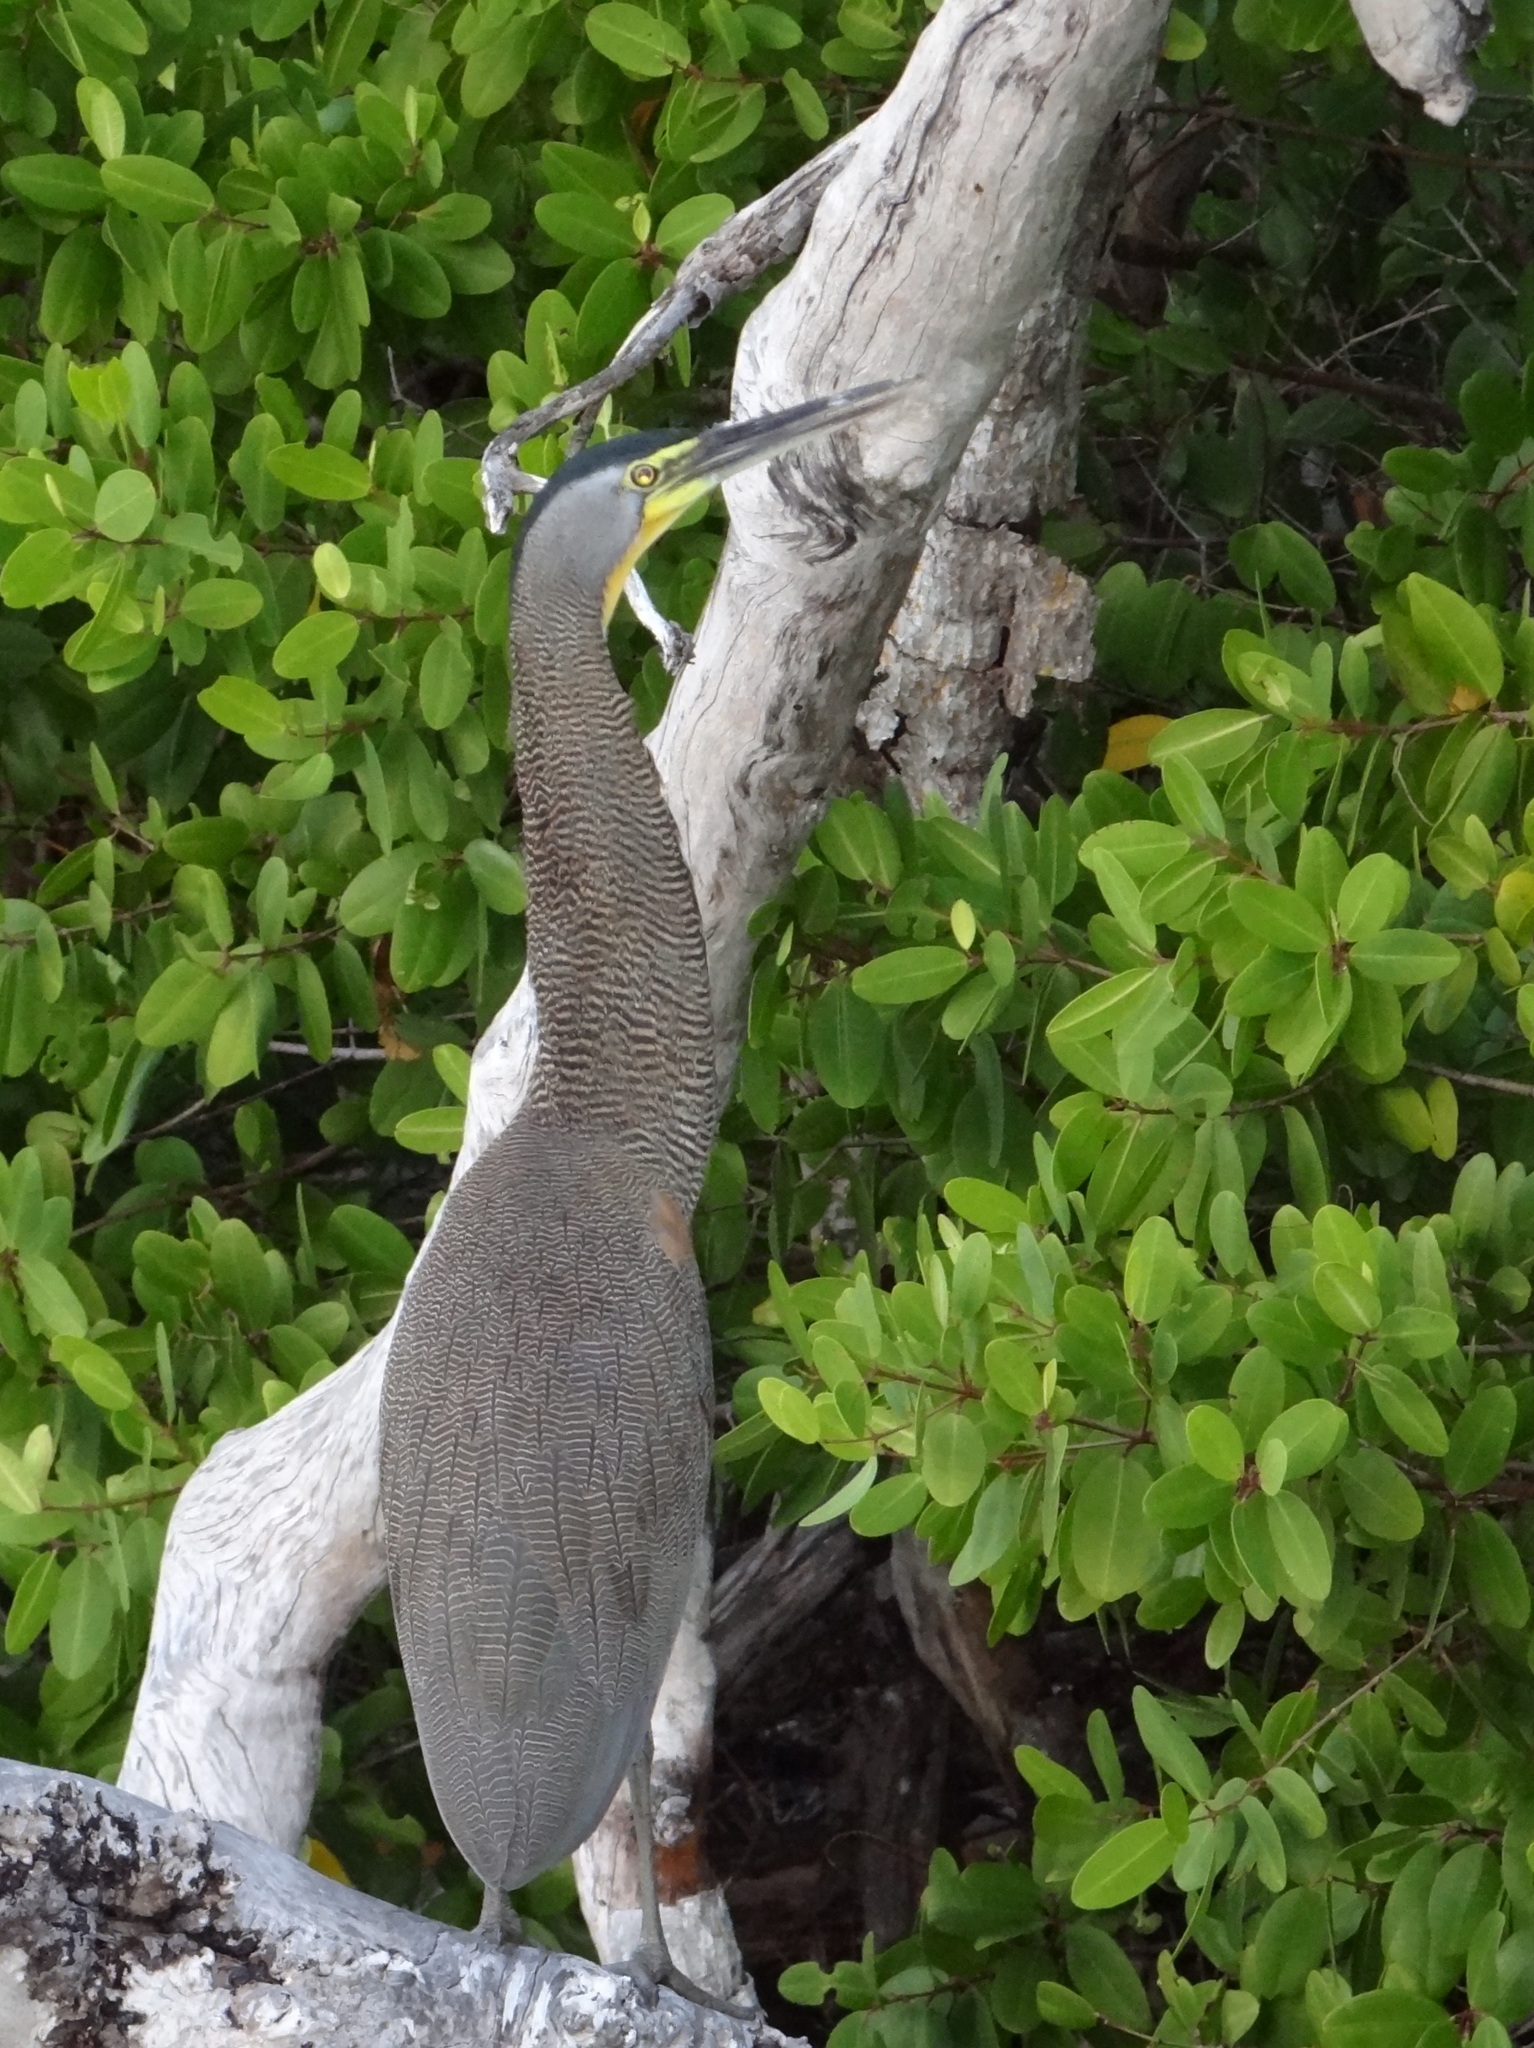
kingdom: Animalia
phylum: Chordata
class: Aves
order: Pelecaniformes
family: Ardeidae
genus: Tigrisoma
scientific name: Tigrisoma mexicanum
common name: Bare-throated tiger-heron
